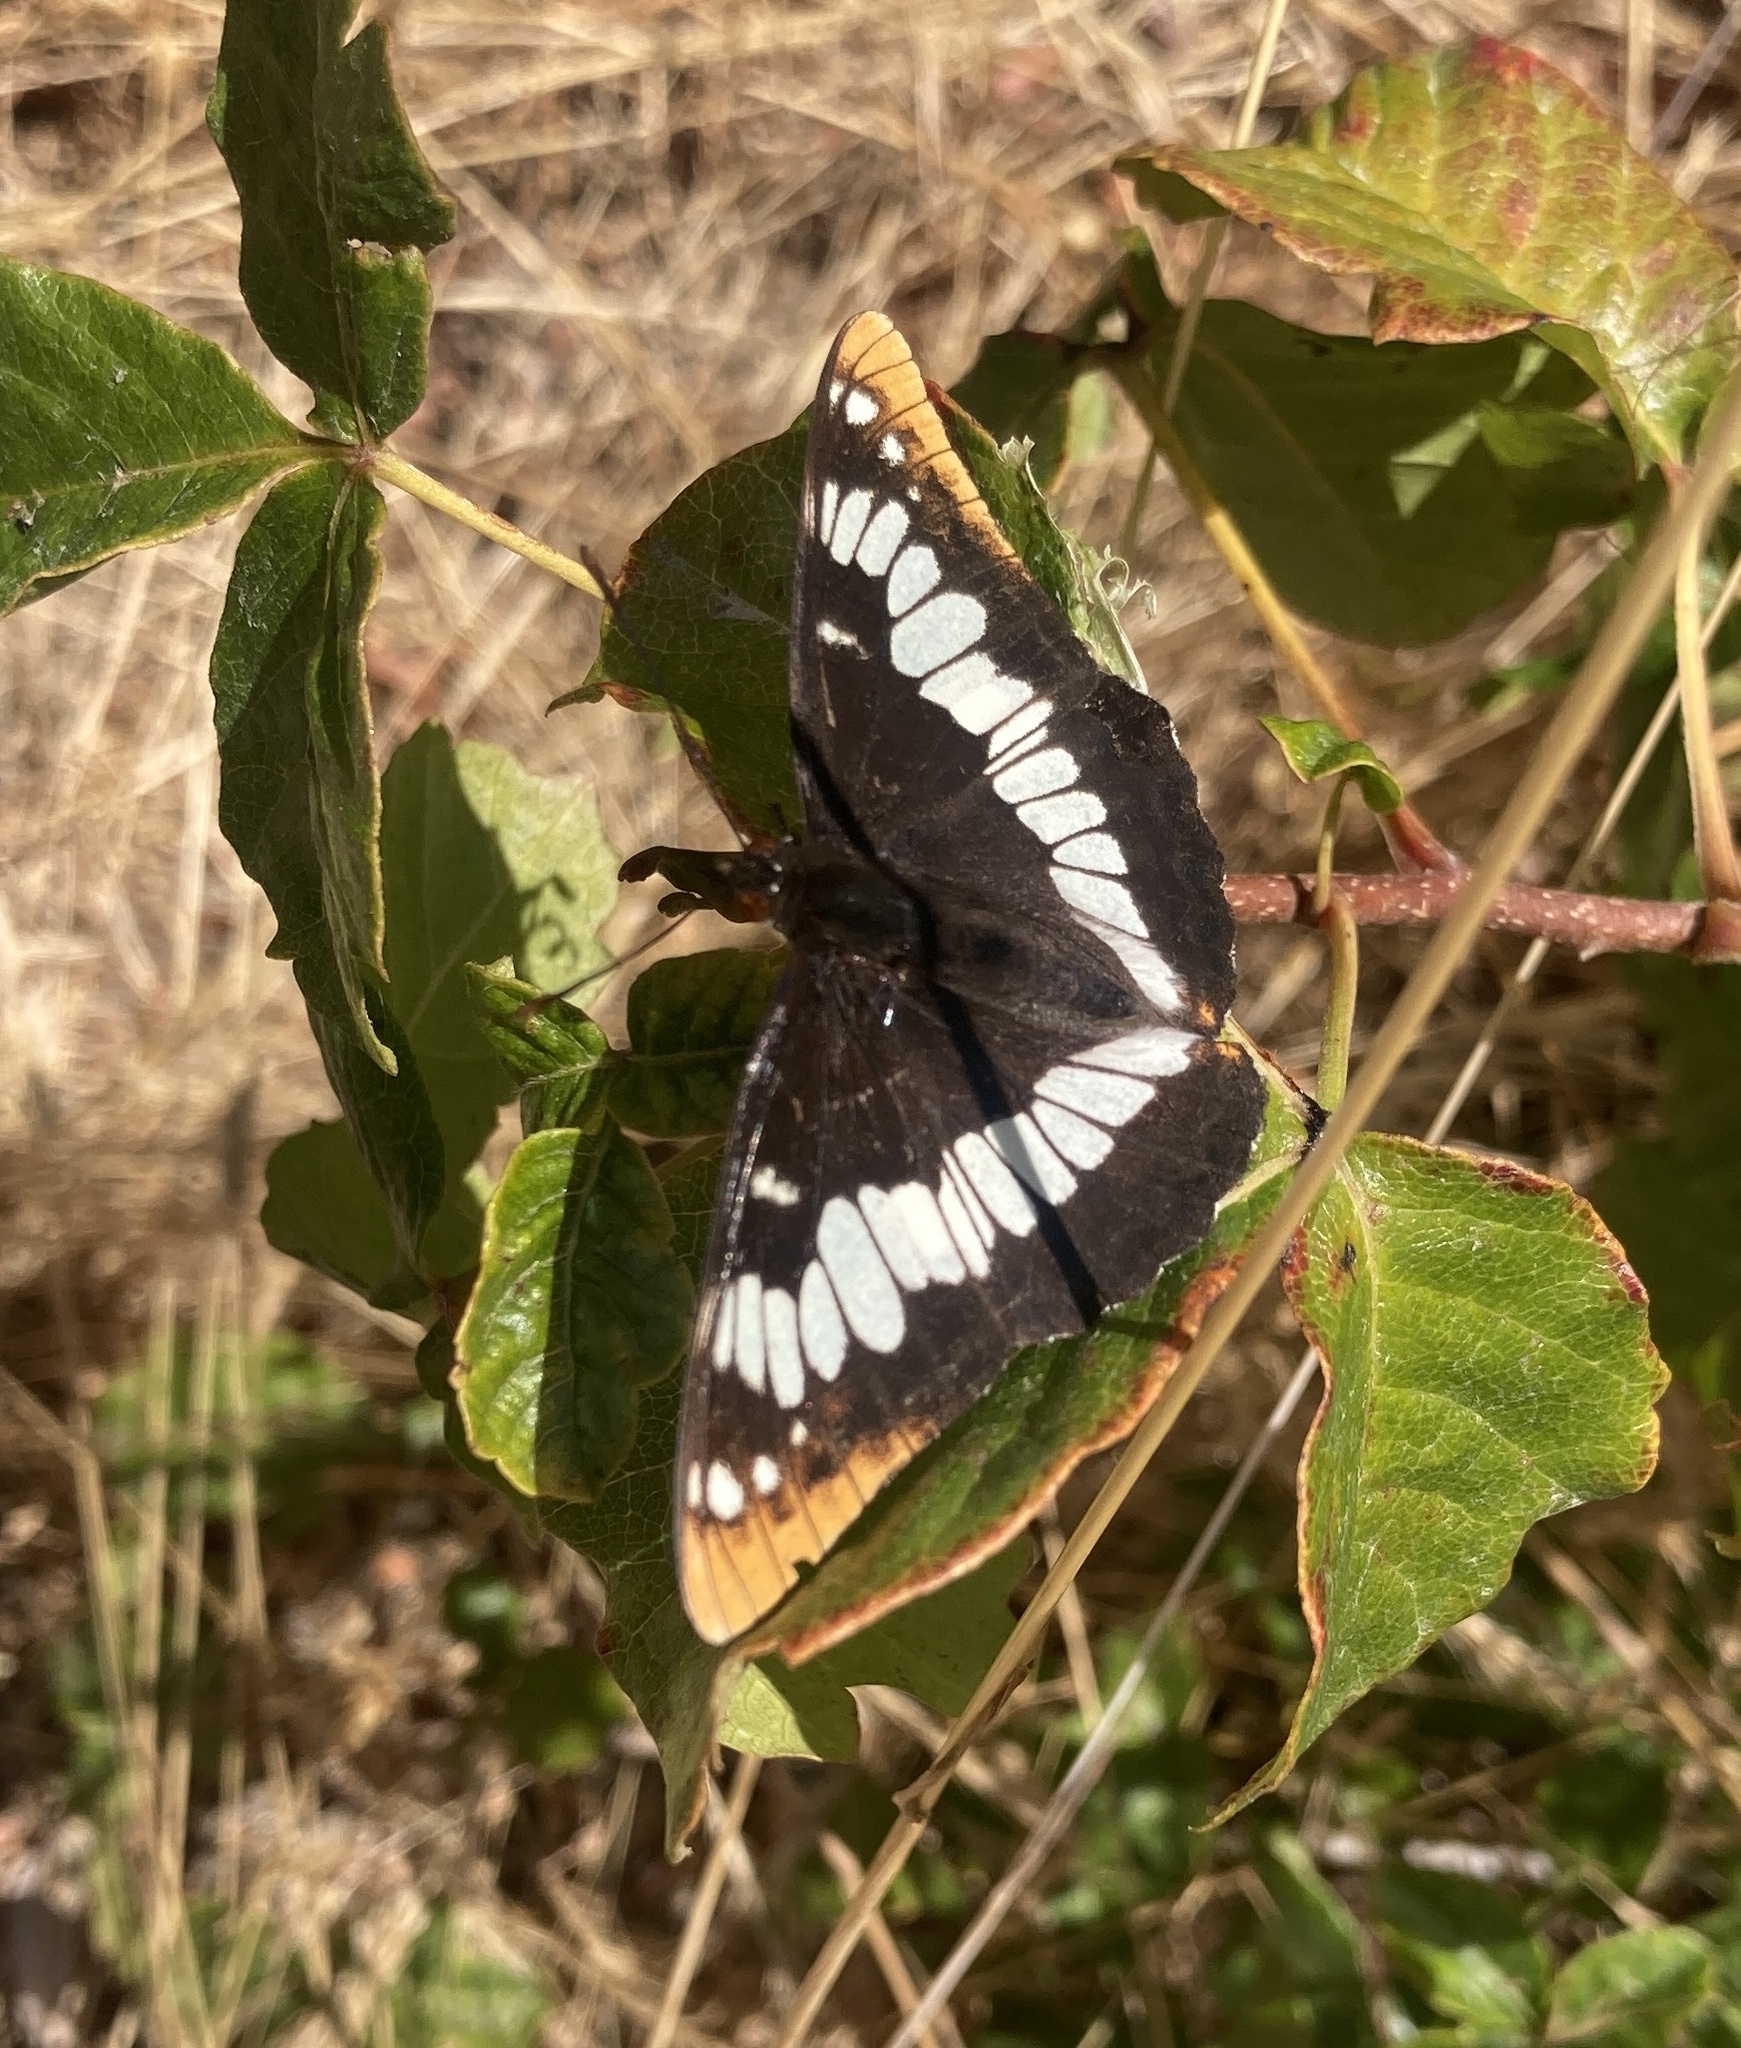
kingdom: Animalia
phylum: Arthropoda
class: Insecta
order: Lepidoptera
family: Nymphalidae
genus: Limenitis
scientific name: Limenitis lorquini
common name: Lorquin's admiral
